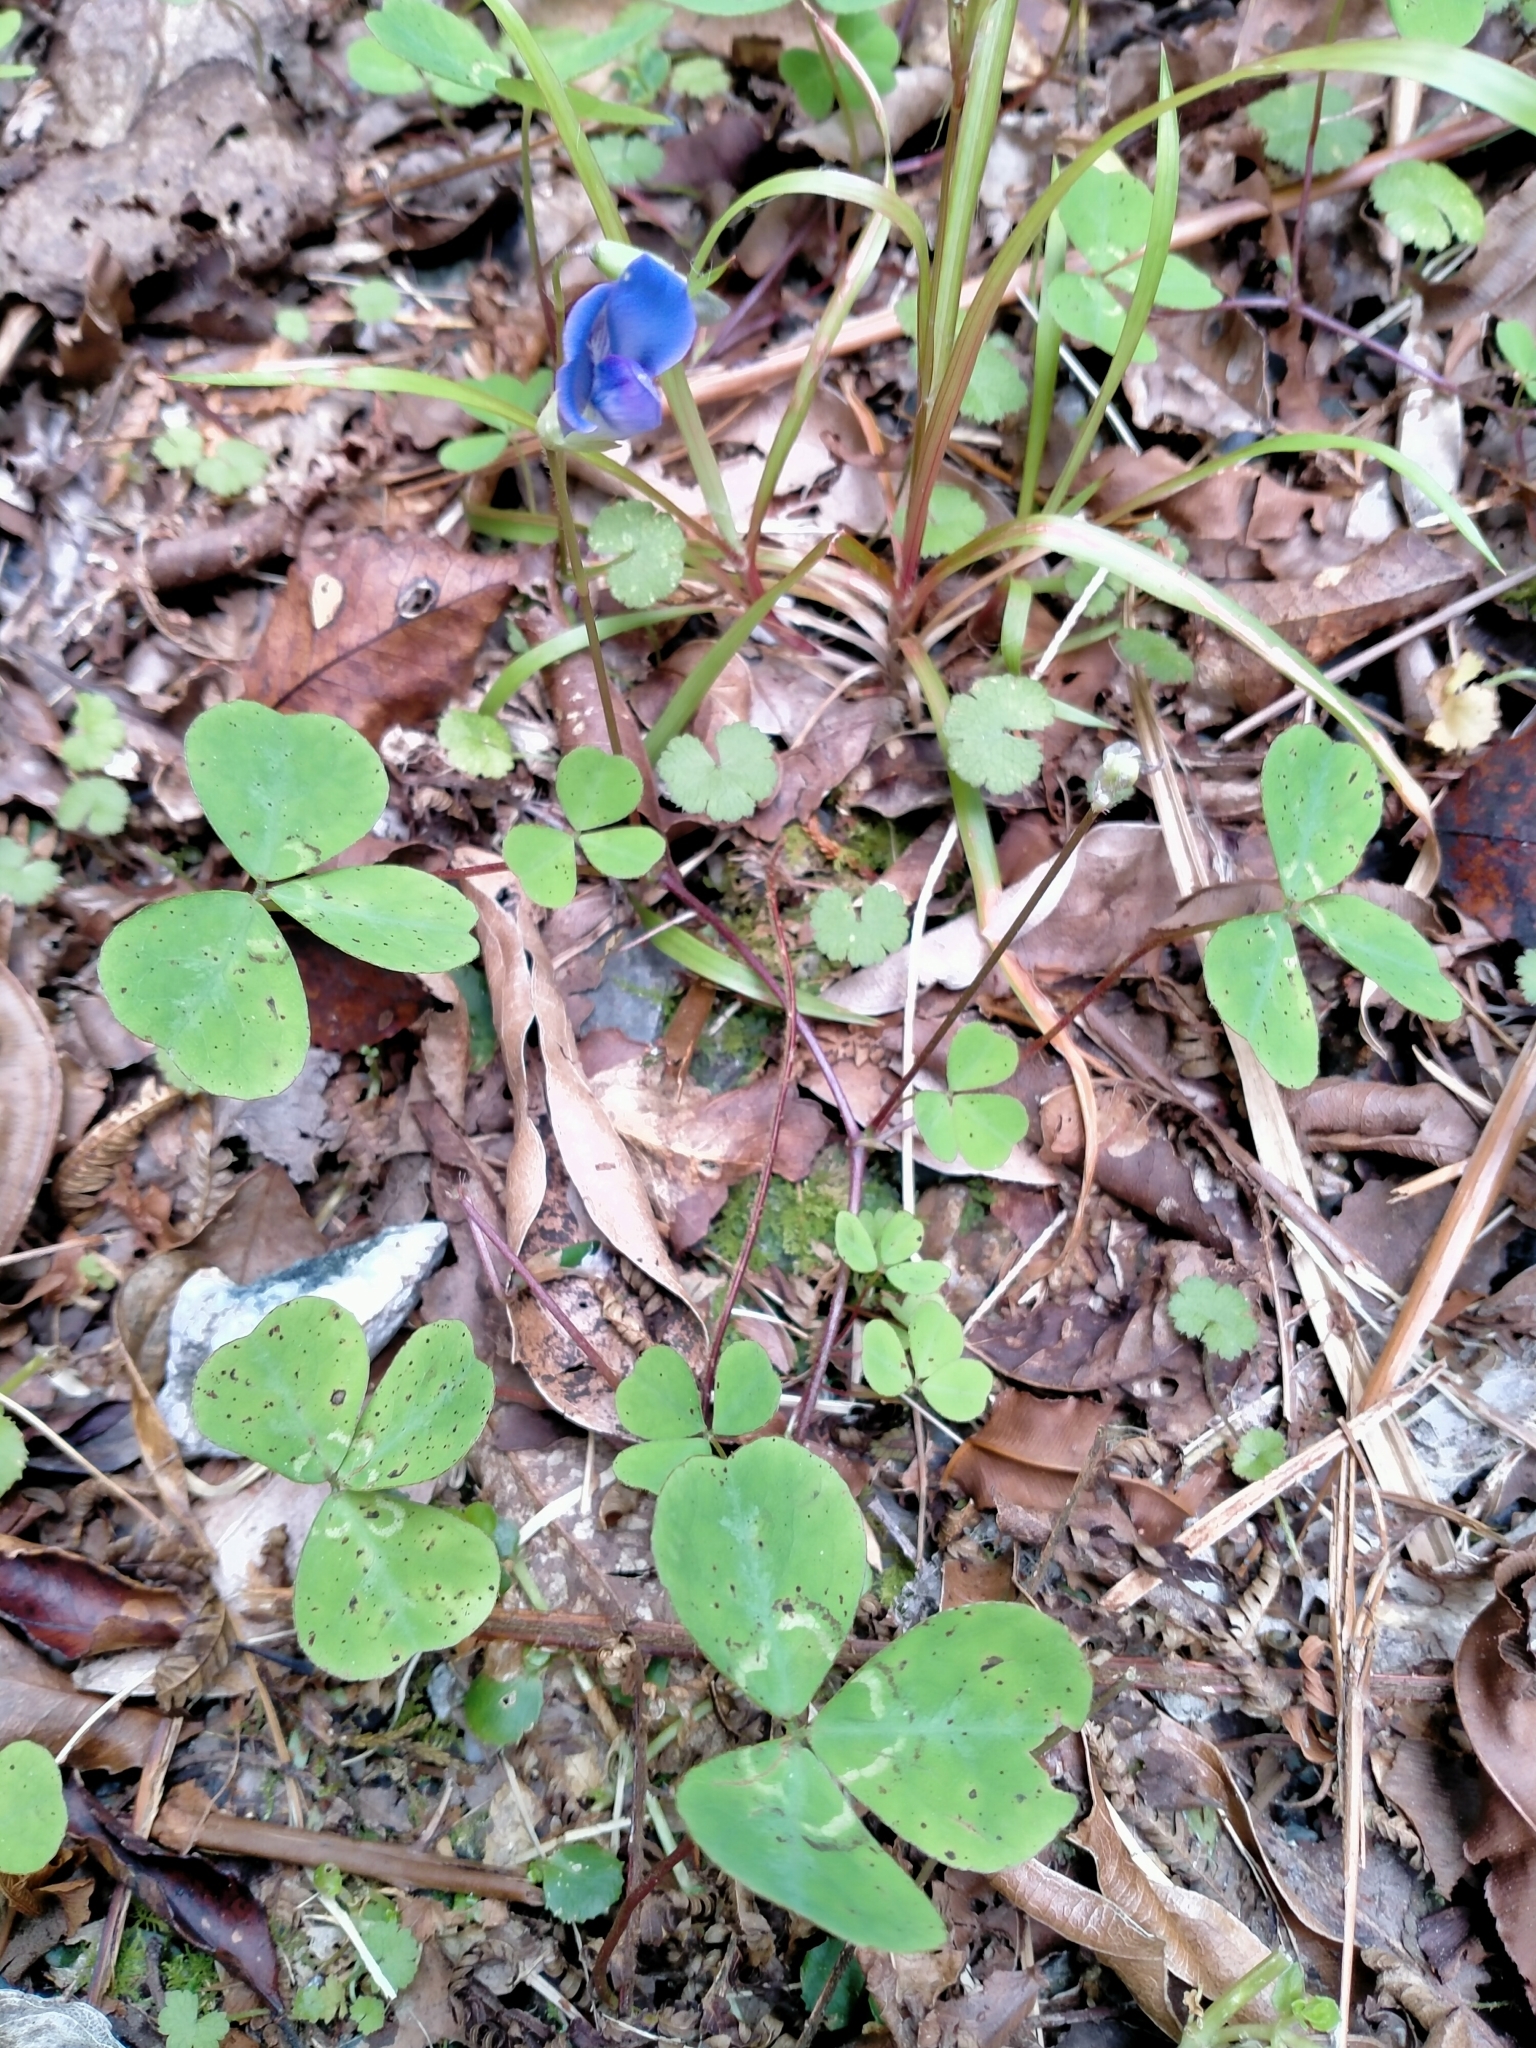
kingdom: Plantae
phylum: Tracheophyta
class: Magnoliopsida
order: Fabales
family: Fabaceae
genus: Parochetus
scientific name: Parochetus communis
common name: Blue oxalis
